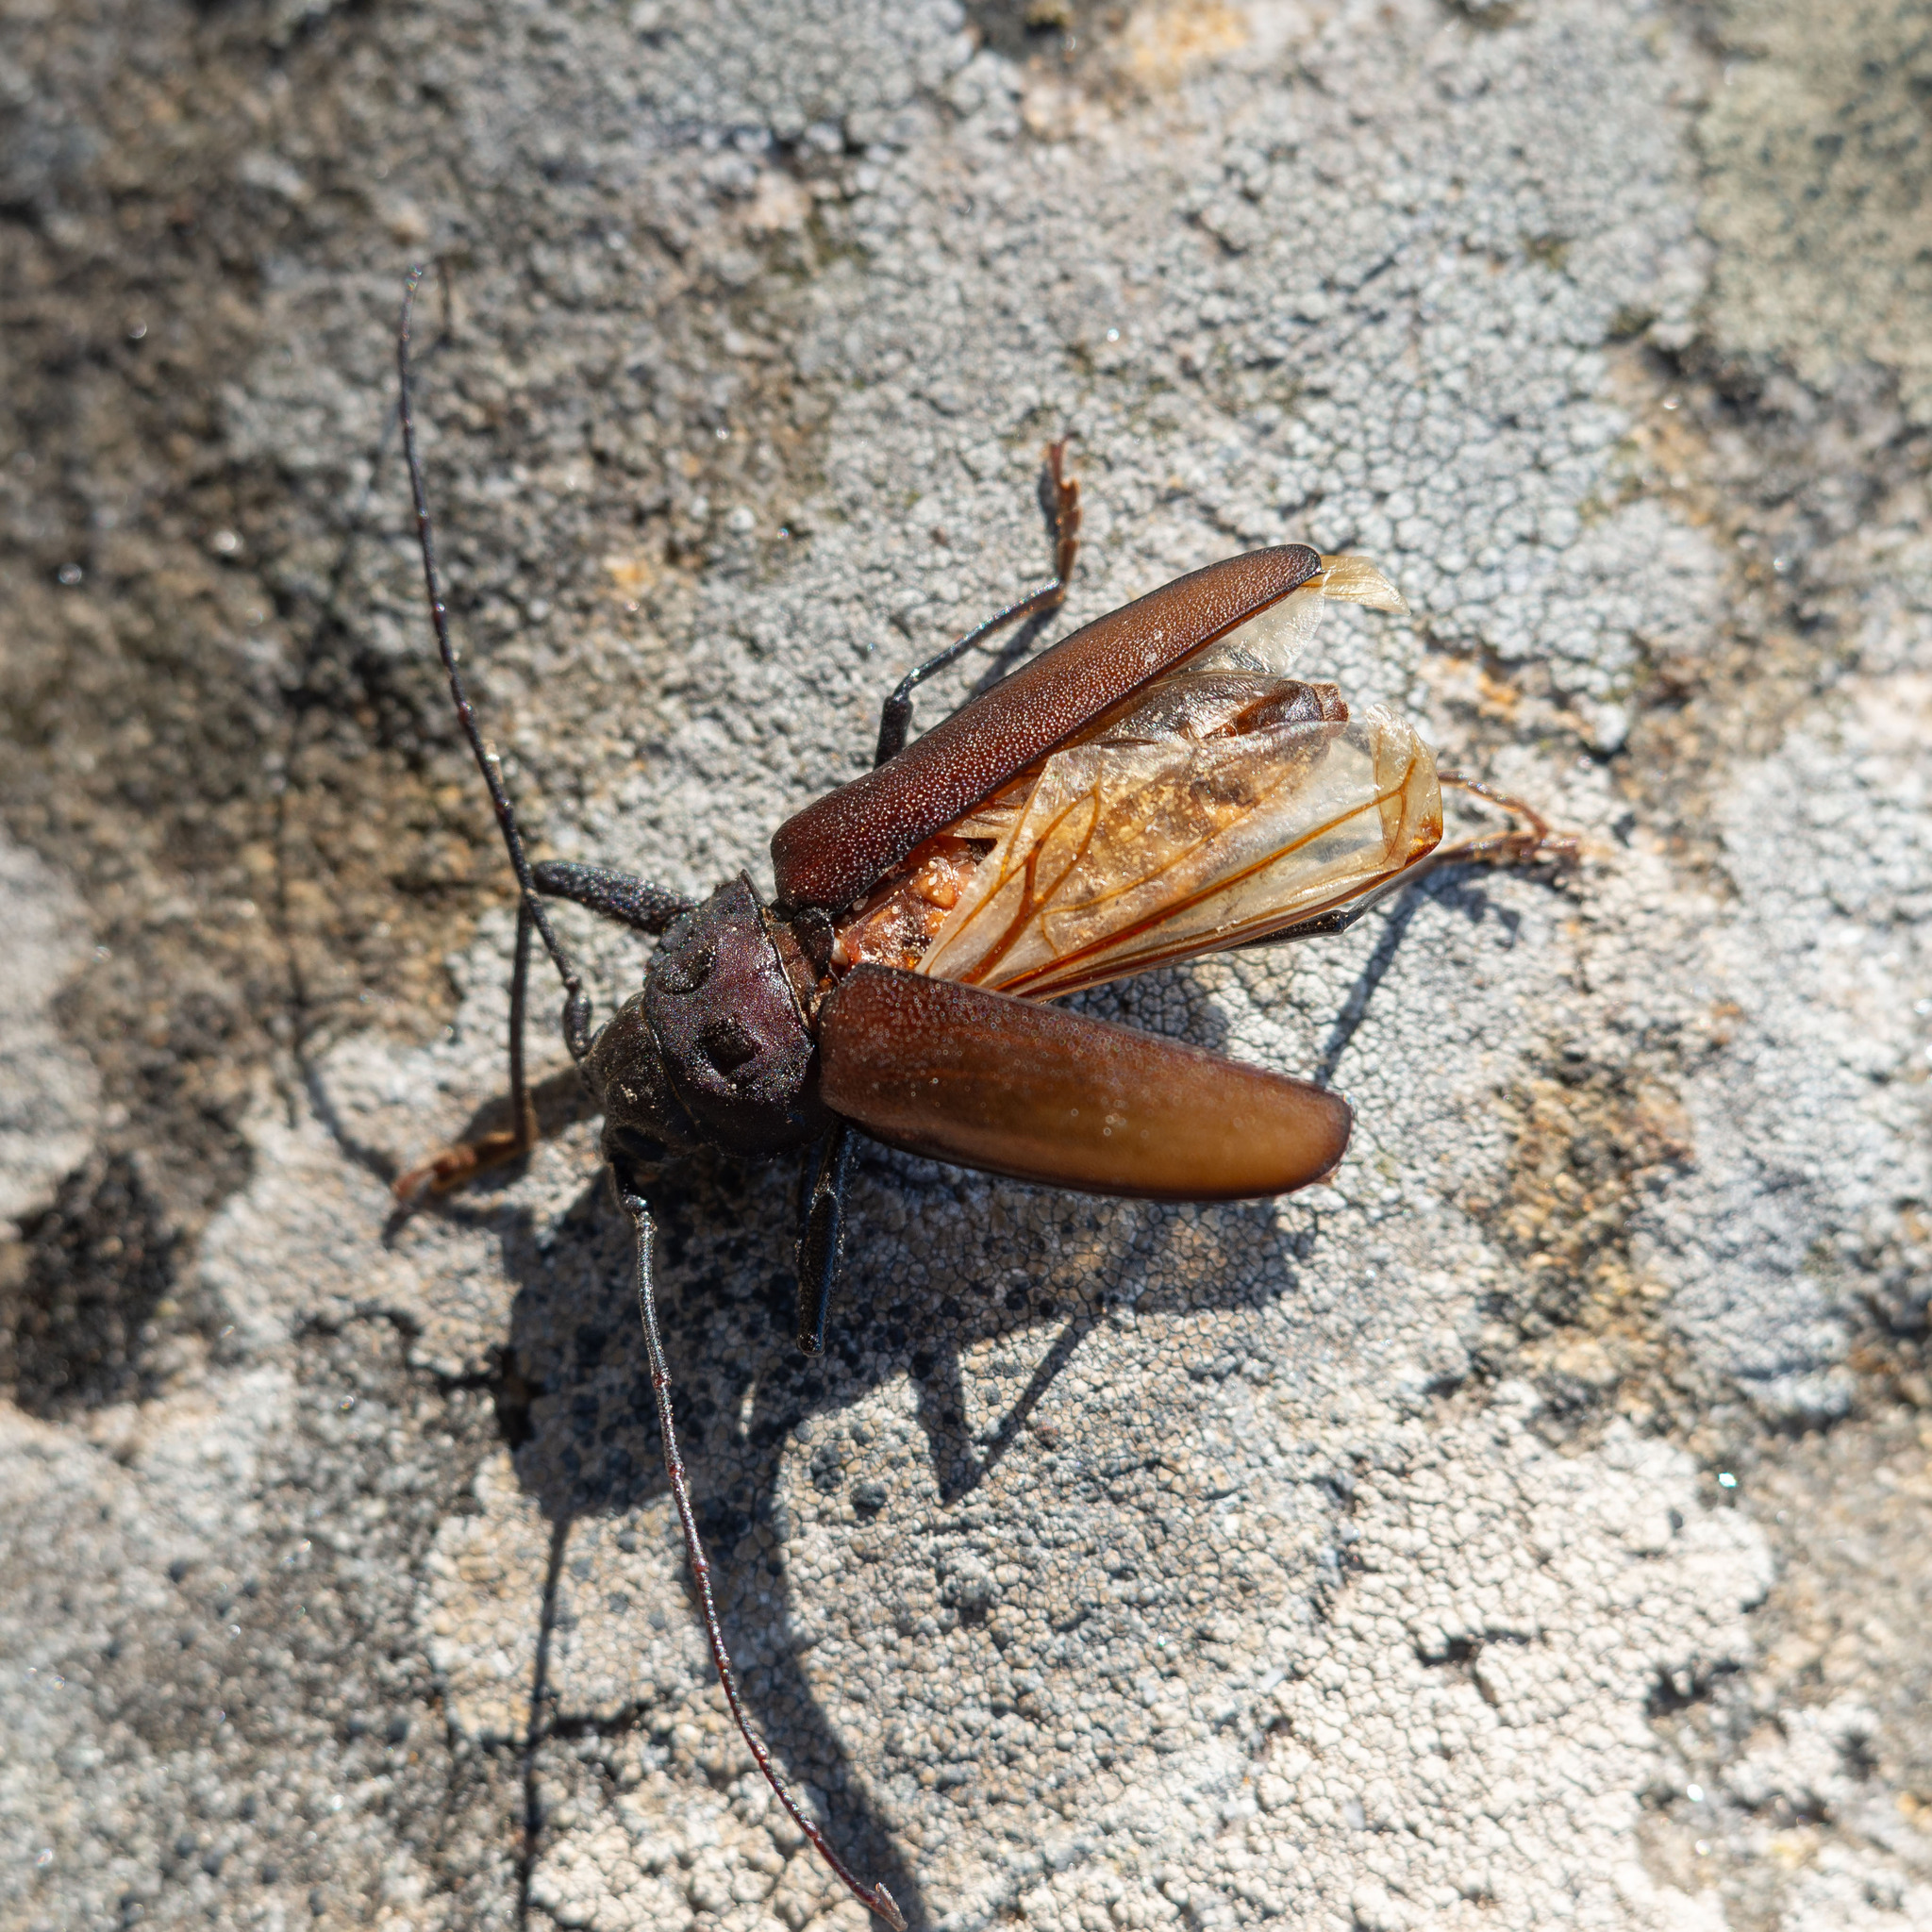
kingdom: Animalia
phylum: Arthropoda
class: Insecta
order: Coleoptera
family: Cerambycidae
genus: Ergates
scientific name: Ergates faber
